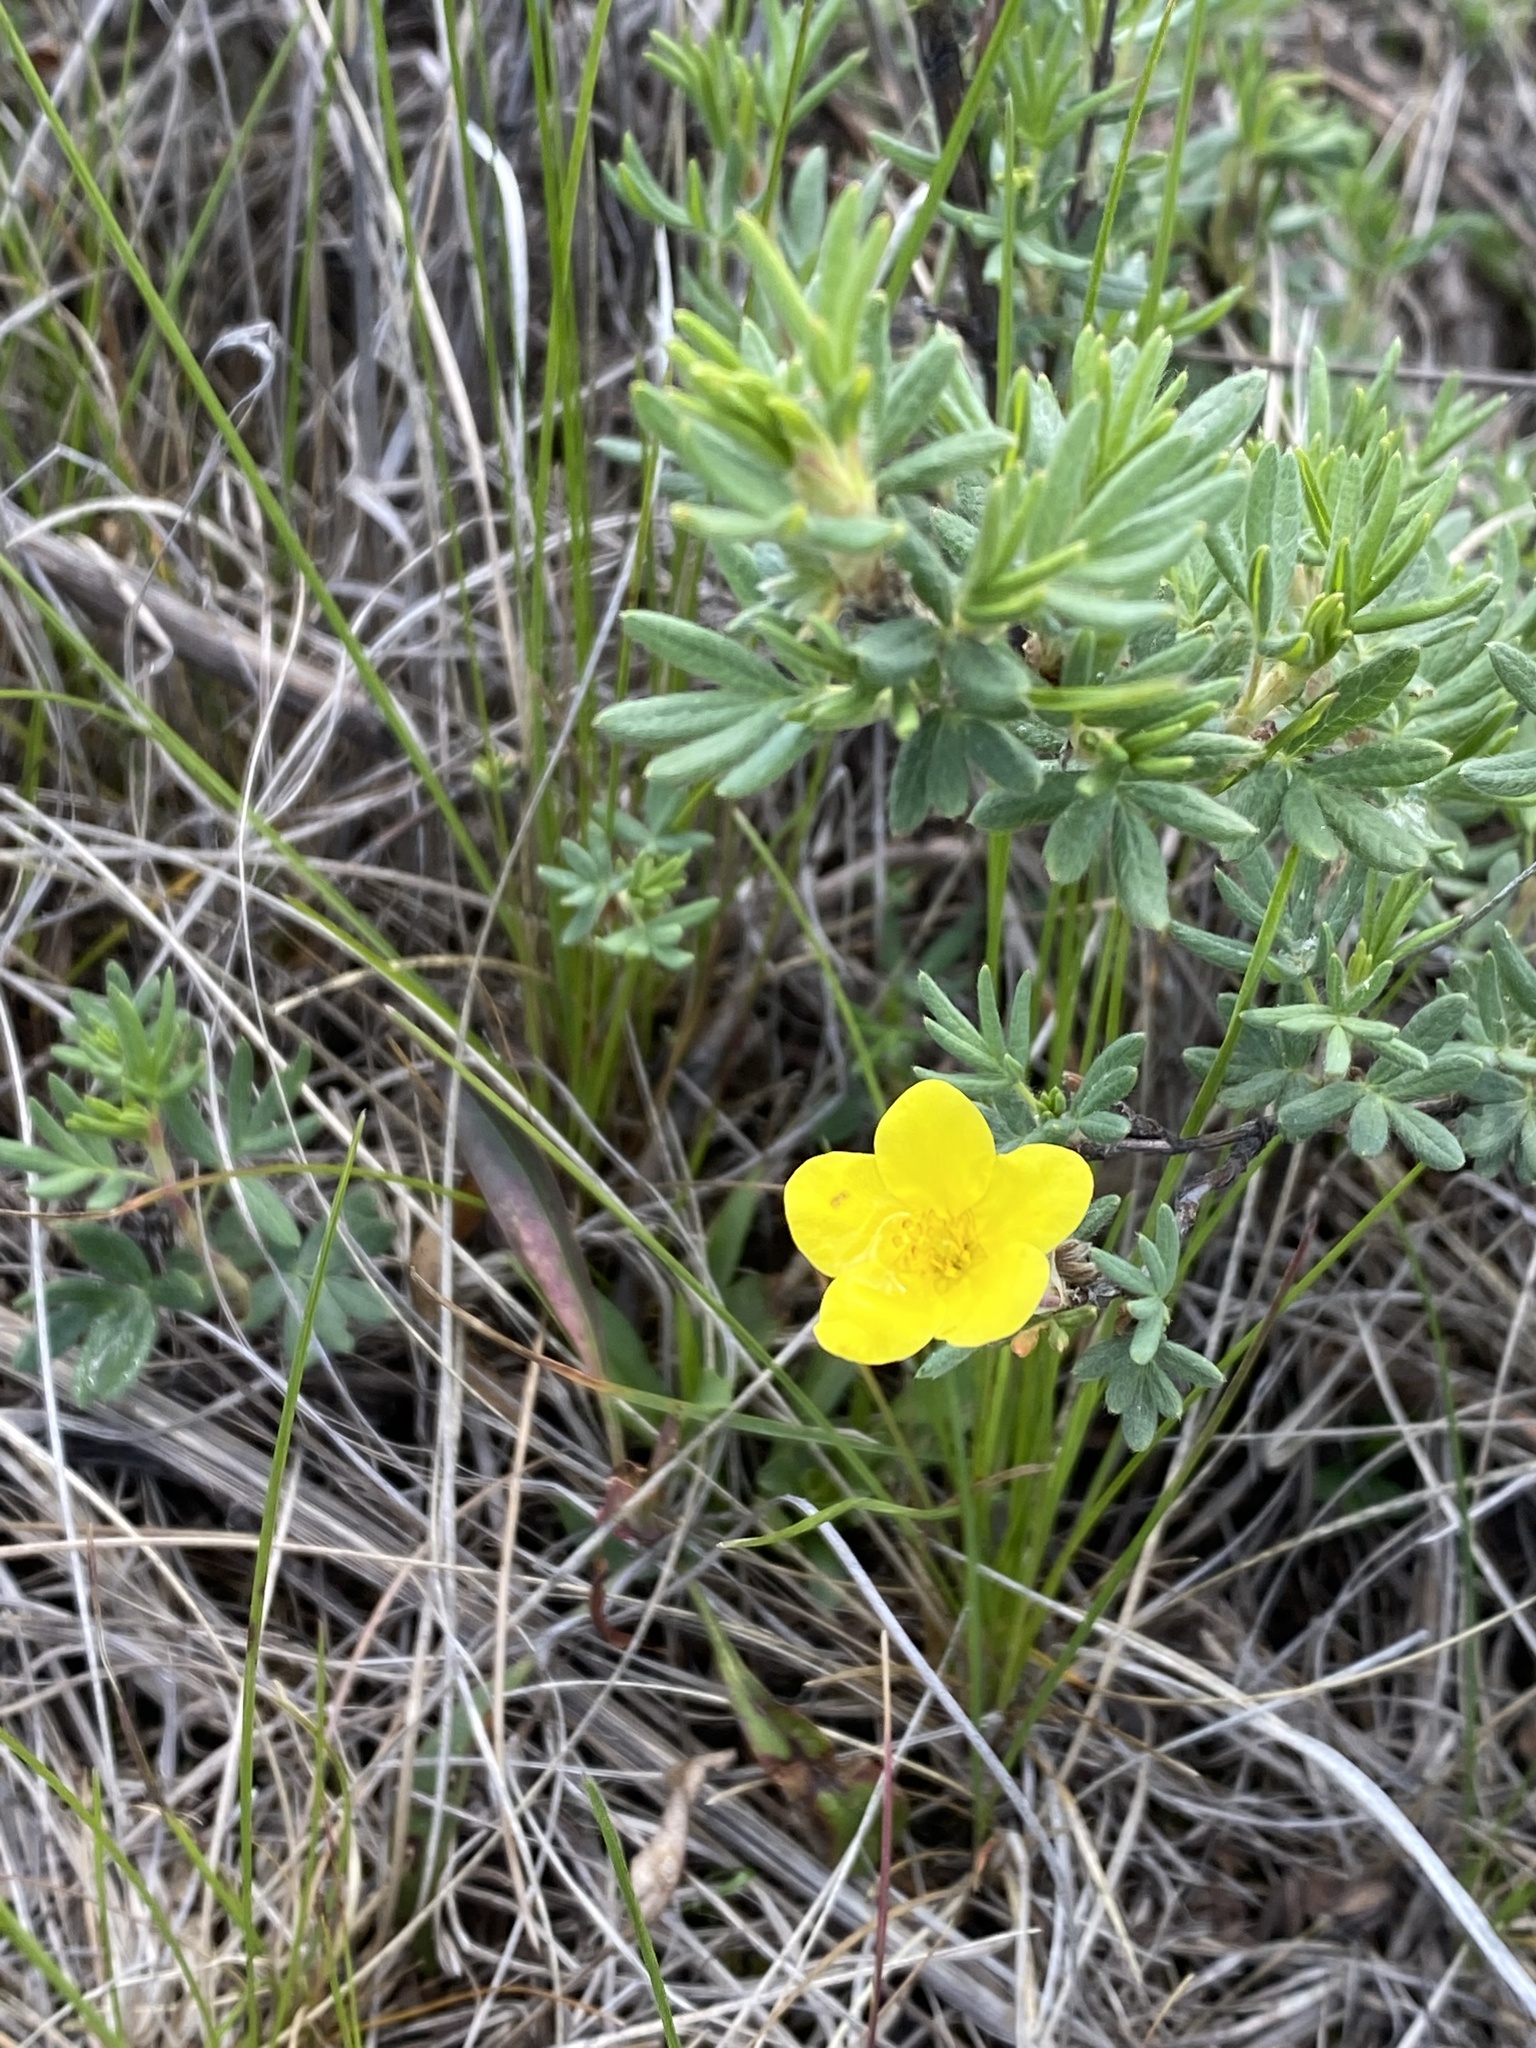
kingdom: Plantae
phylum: Tracheophyta
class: Magnoliopsida
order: Rosales
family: Rosaceae
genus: Dasiphora
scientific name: Dasiphora fruticosa
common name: Shrubby cinquefoil
